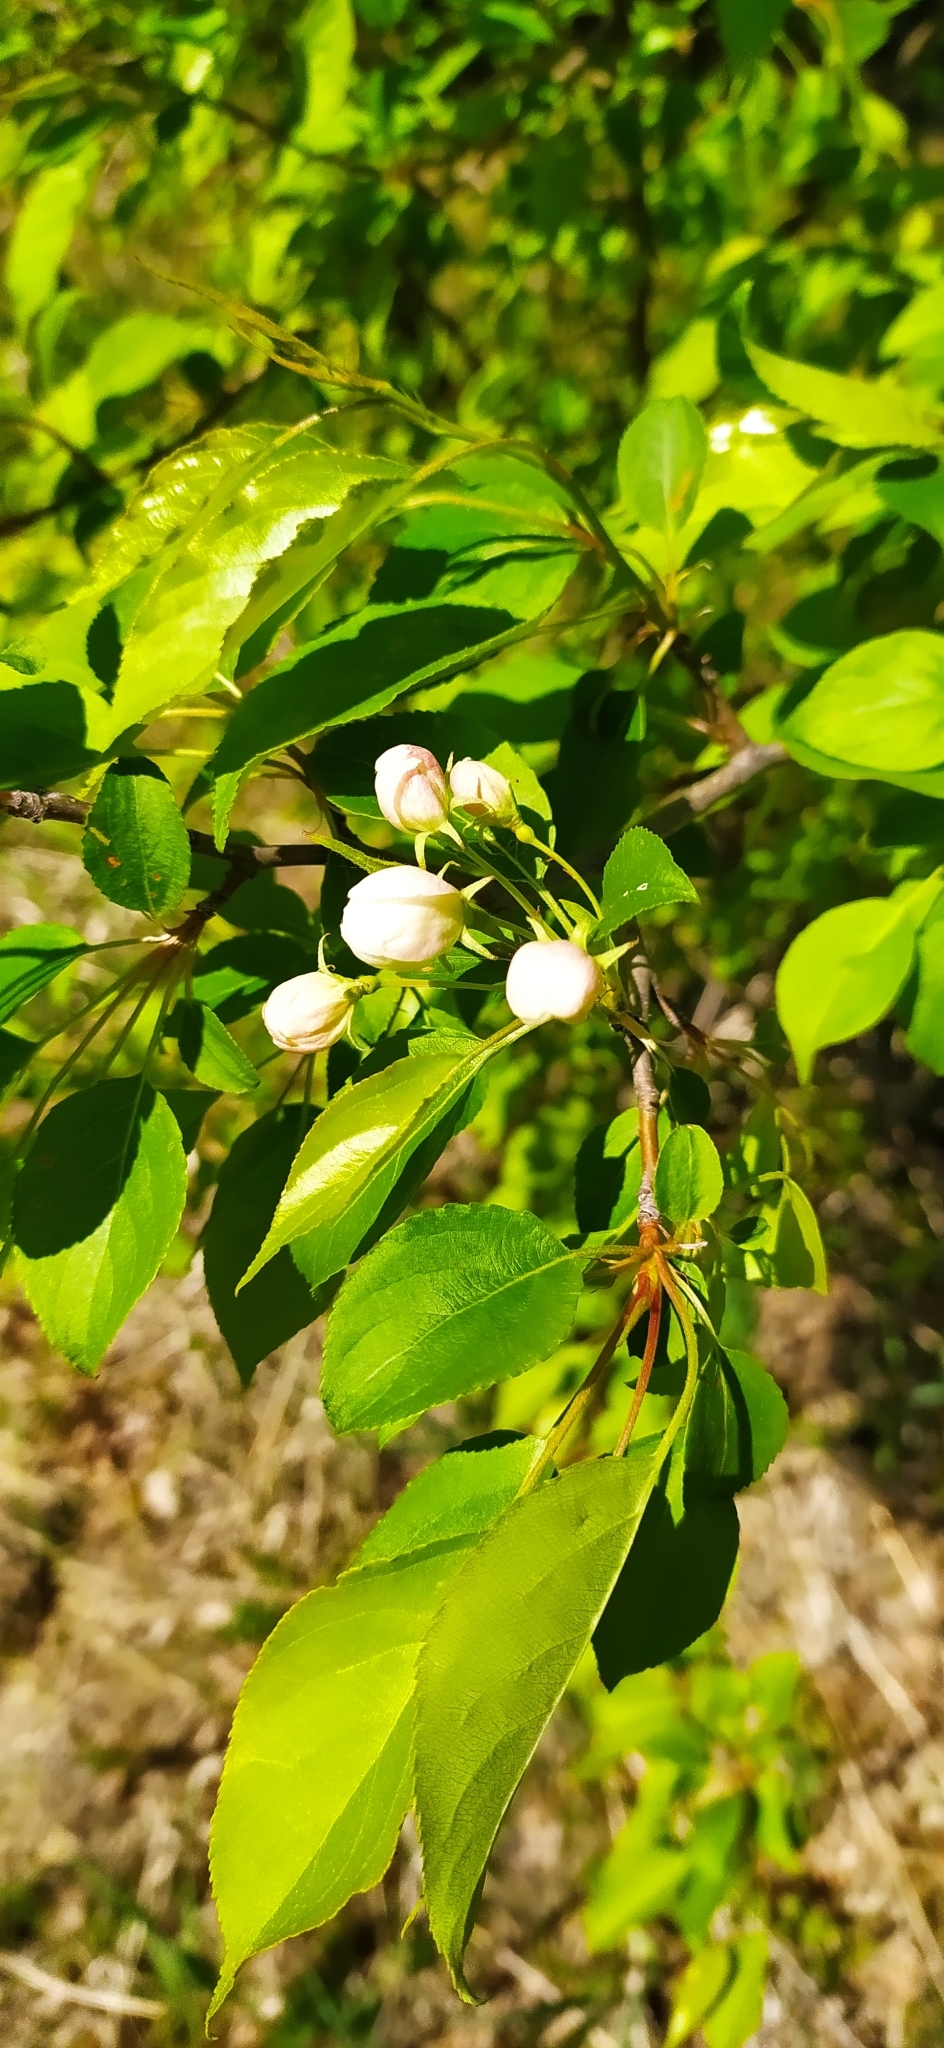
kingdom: Plantae
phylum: Tracheophyta
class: Magnoliopsida
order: Rosales
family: Rosaceae
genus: Malus
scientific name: Malus baccata
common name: Siberian crab
